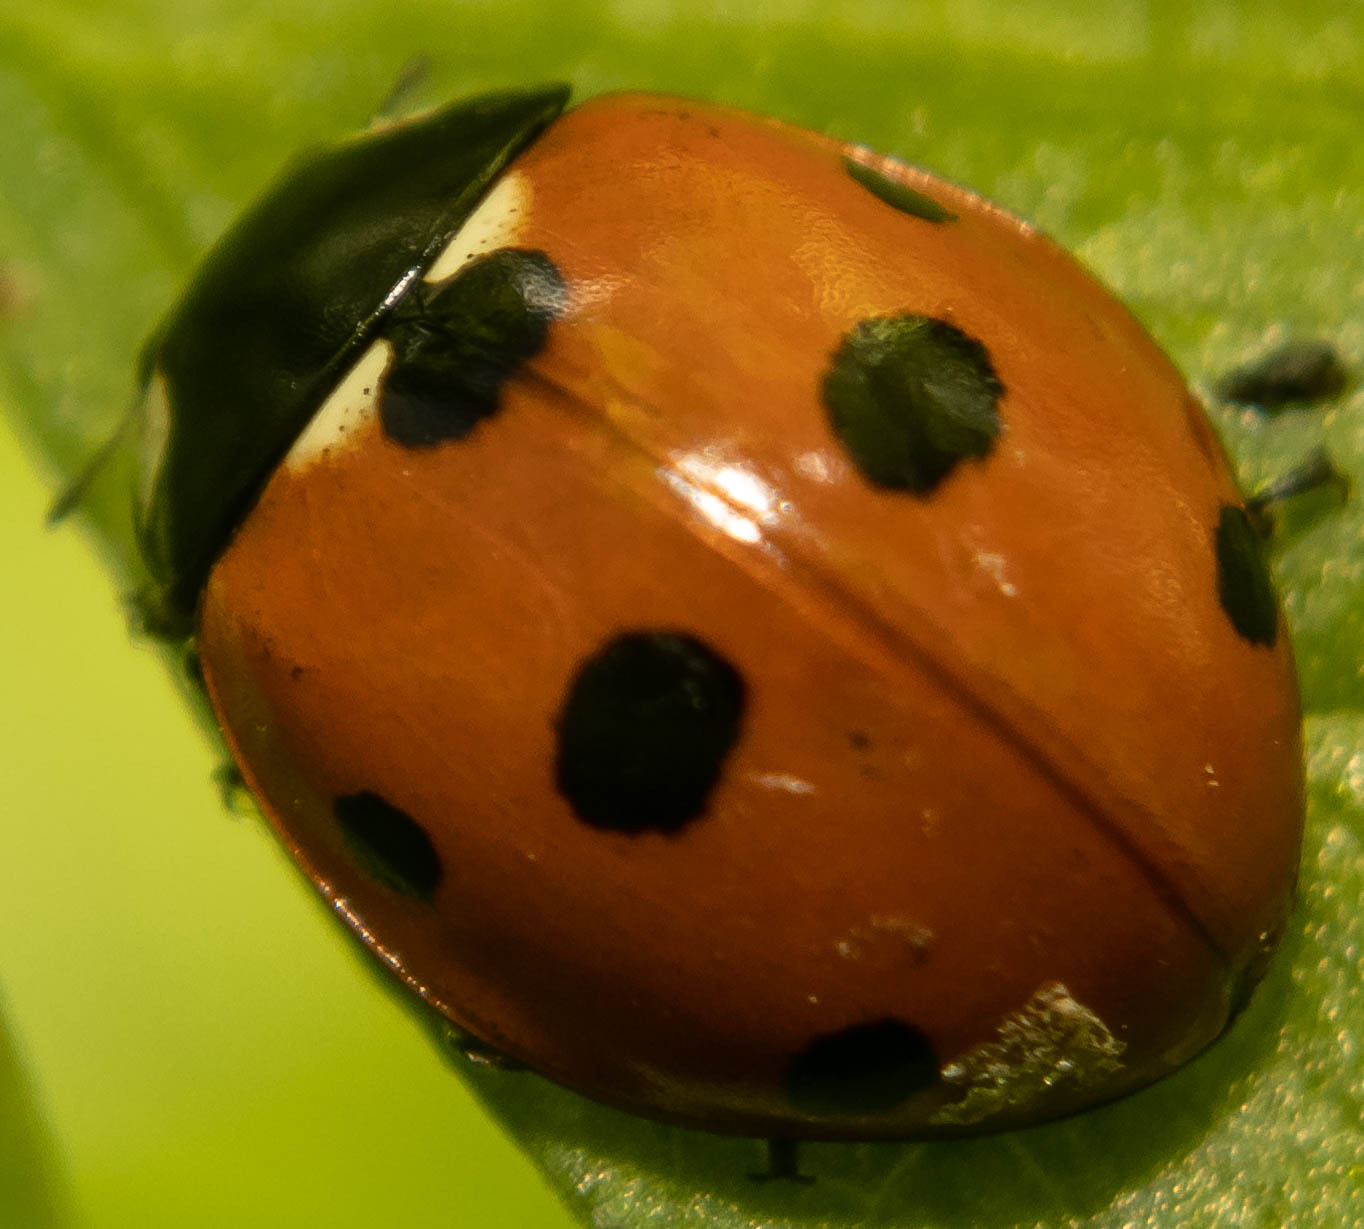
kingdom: Animalia
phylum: Arthropoda
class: Insecta
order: Coleoptera
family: Coccinellidae
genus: Coccinella
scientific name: Coccinella septempunctata
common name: Sevenspotted lady beetle
